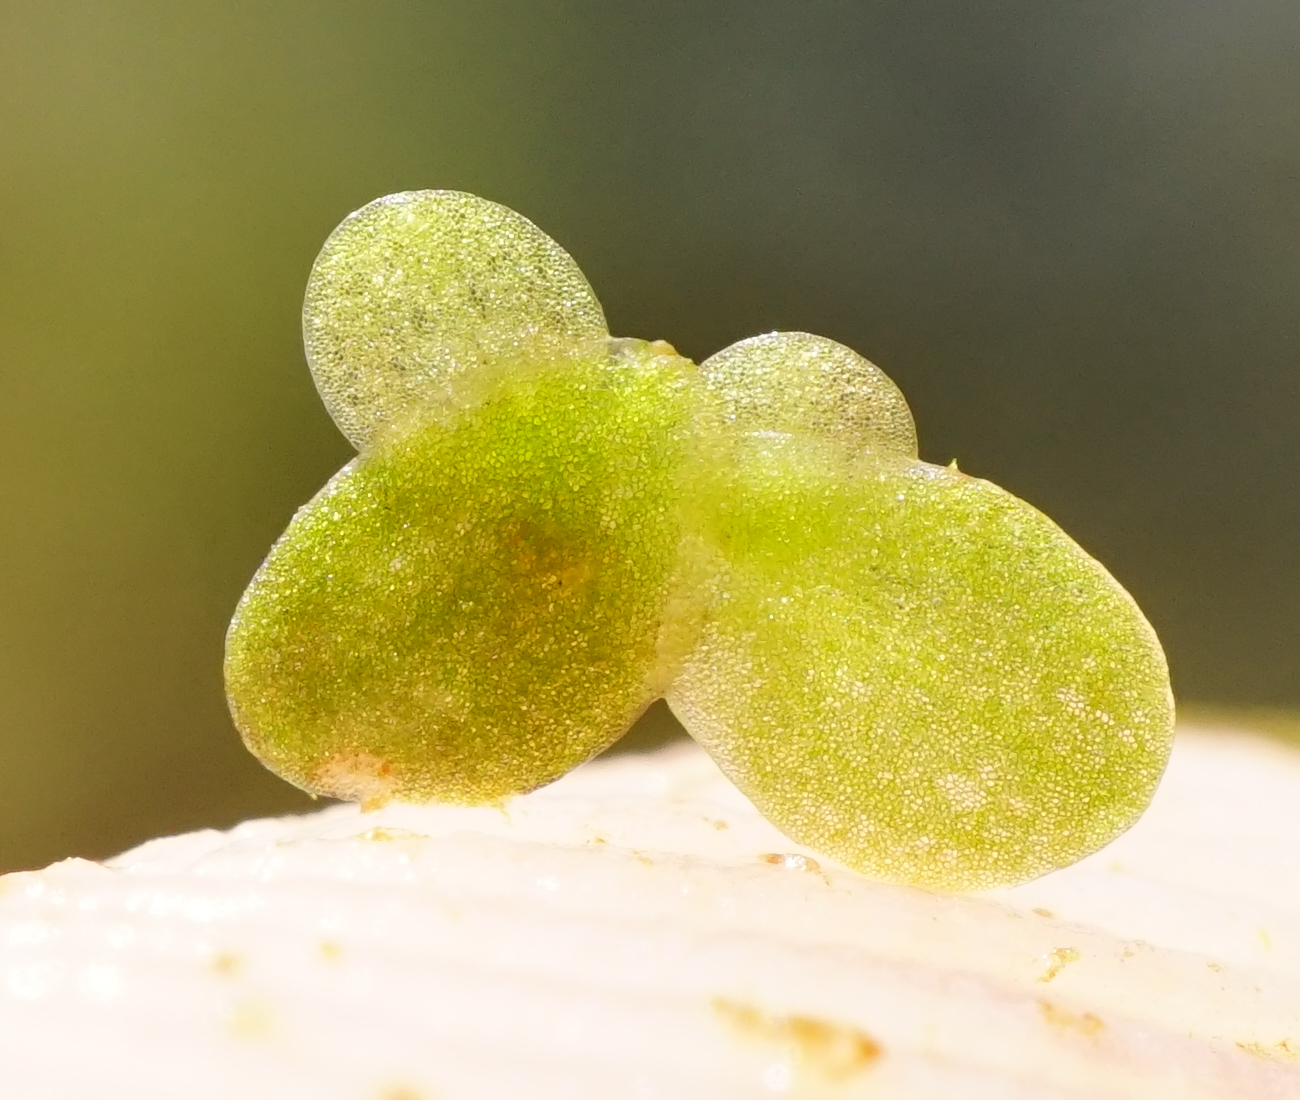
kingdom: Plantae
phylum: Tracheophyta
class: Liliopsida
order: Alismatales
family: Araceae
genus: Lemna
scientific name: Lemna minor
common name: Common duckweed
